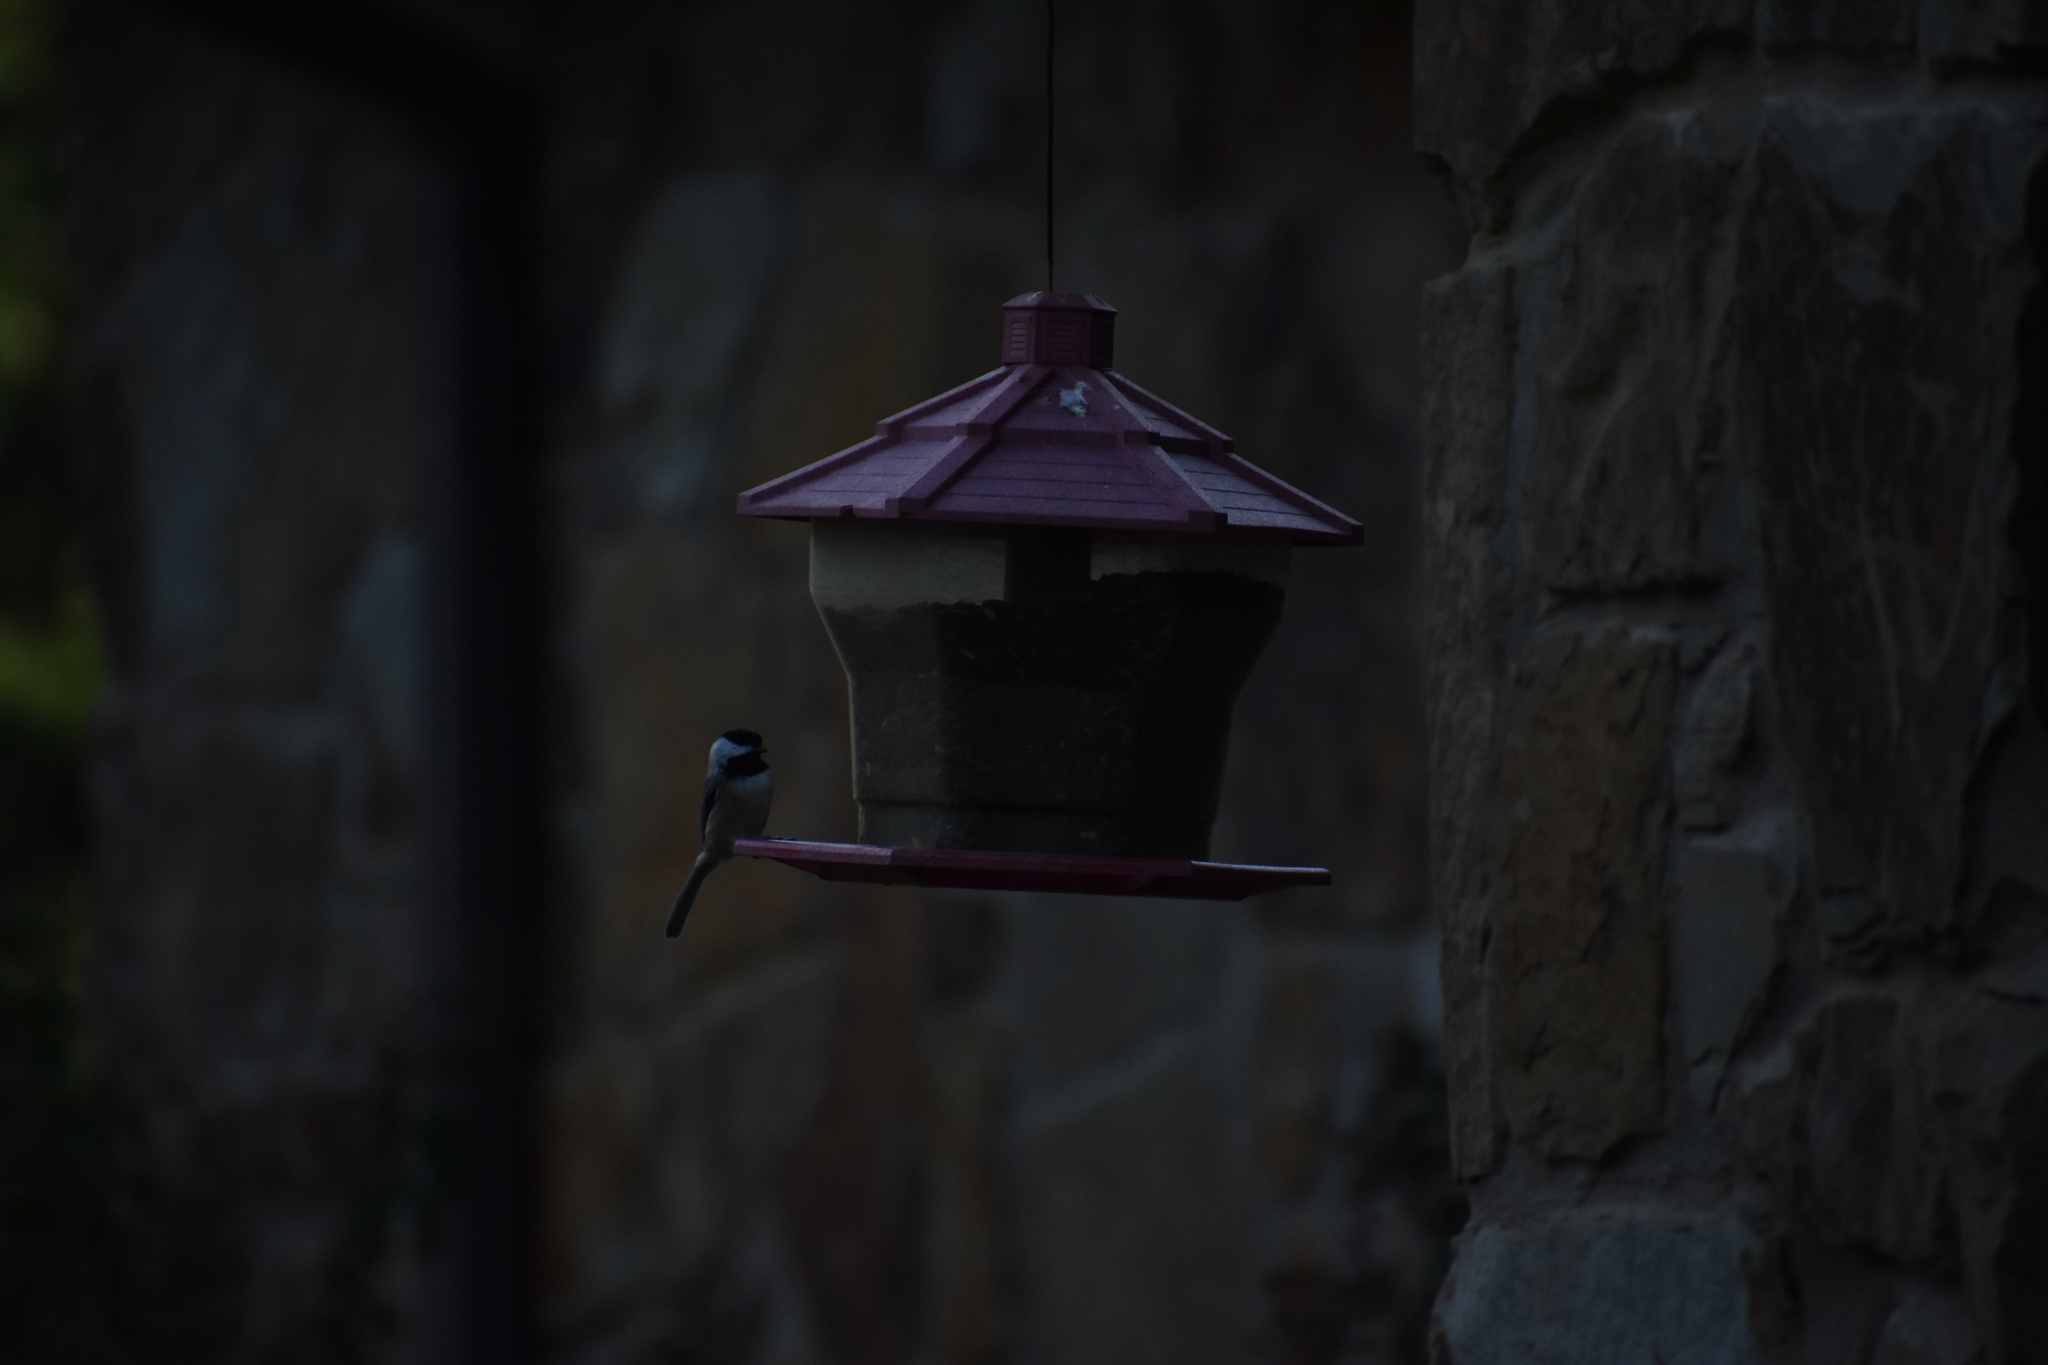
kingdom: Animalia
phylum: Chordata
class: Aves
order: Passeriformes
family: Paridae
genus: Poecile
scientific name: Poecile carolinensis
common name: Carolina chickadee
